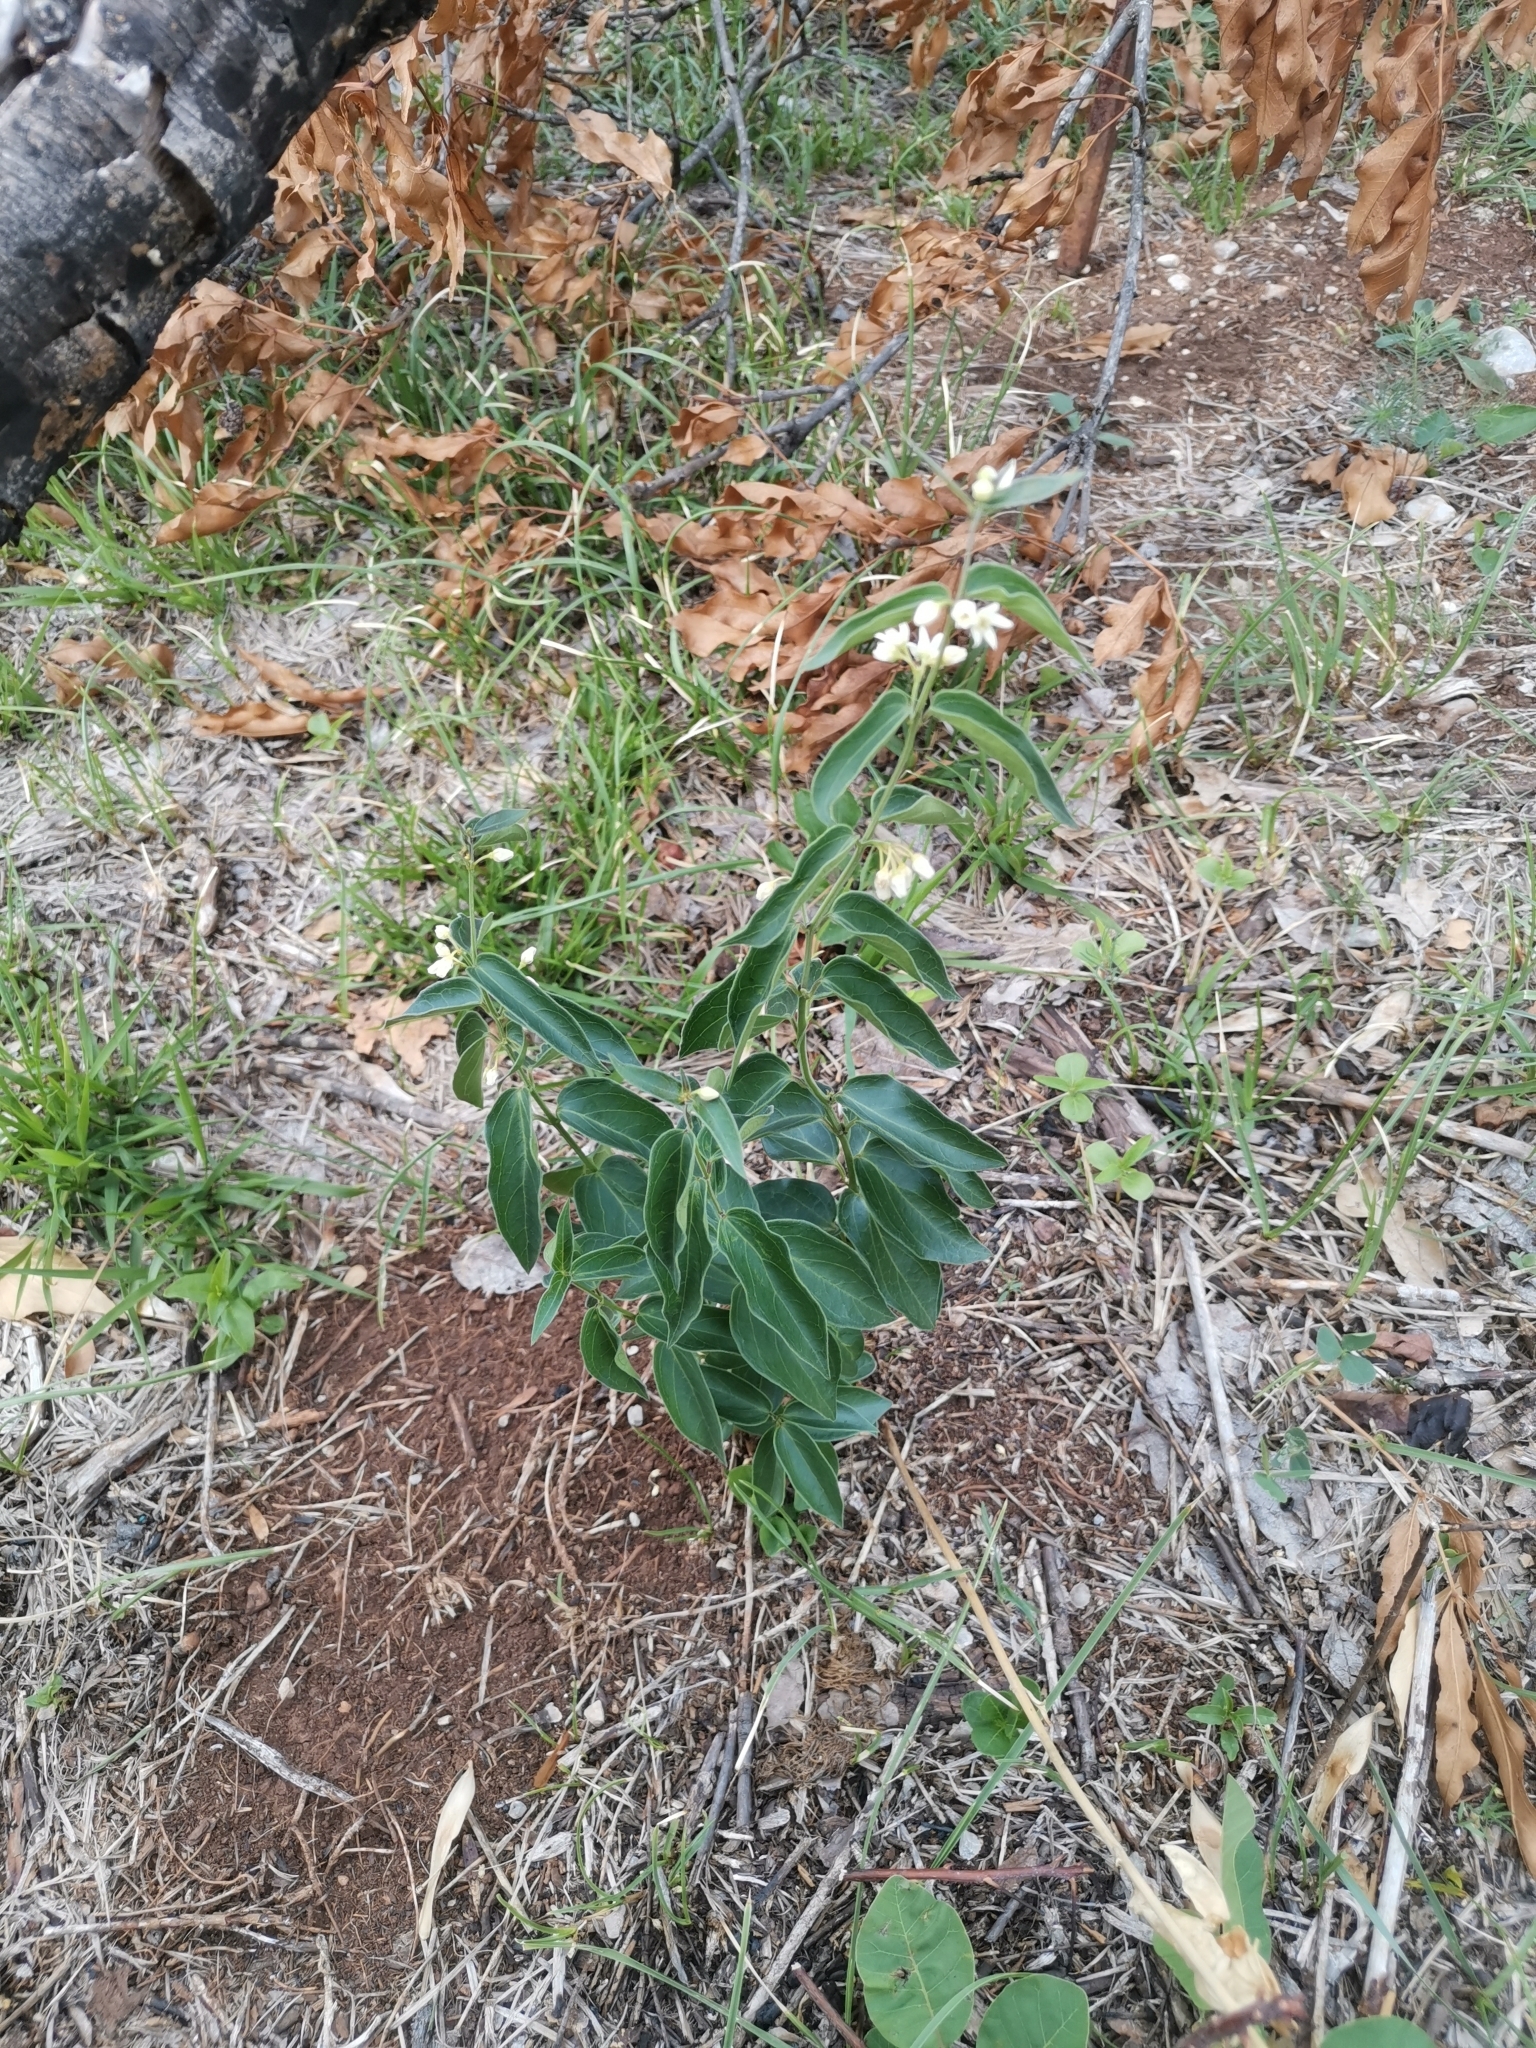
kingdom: Plantae
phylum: Tracheophyta
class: Magnoliopsida
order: Gentianales
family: Apocynaceae
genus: Vincetoxicum
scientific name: Vincetoxicum hirundinaria
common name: White swallowwort
